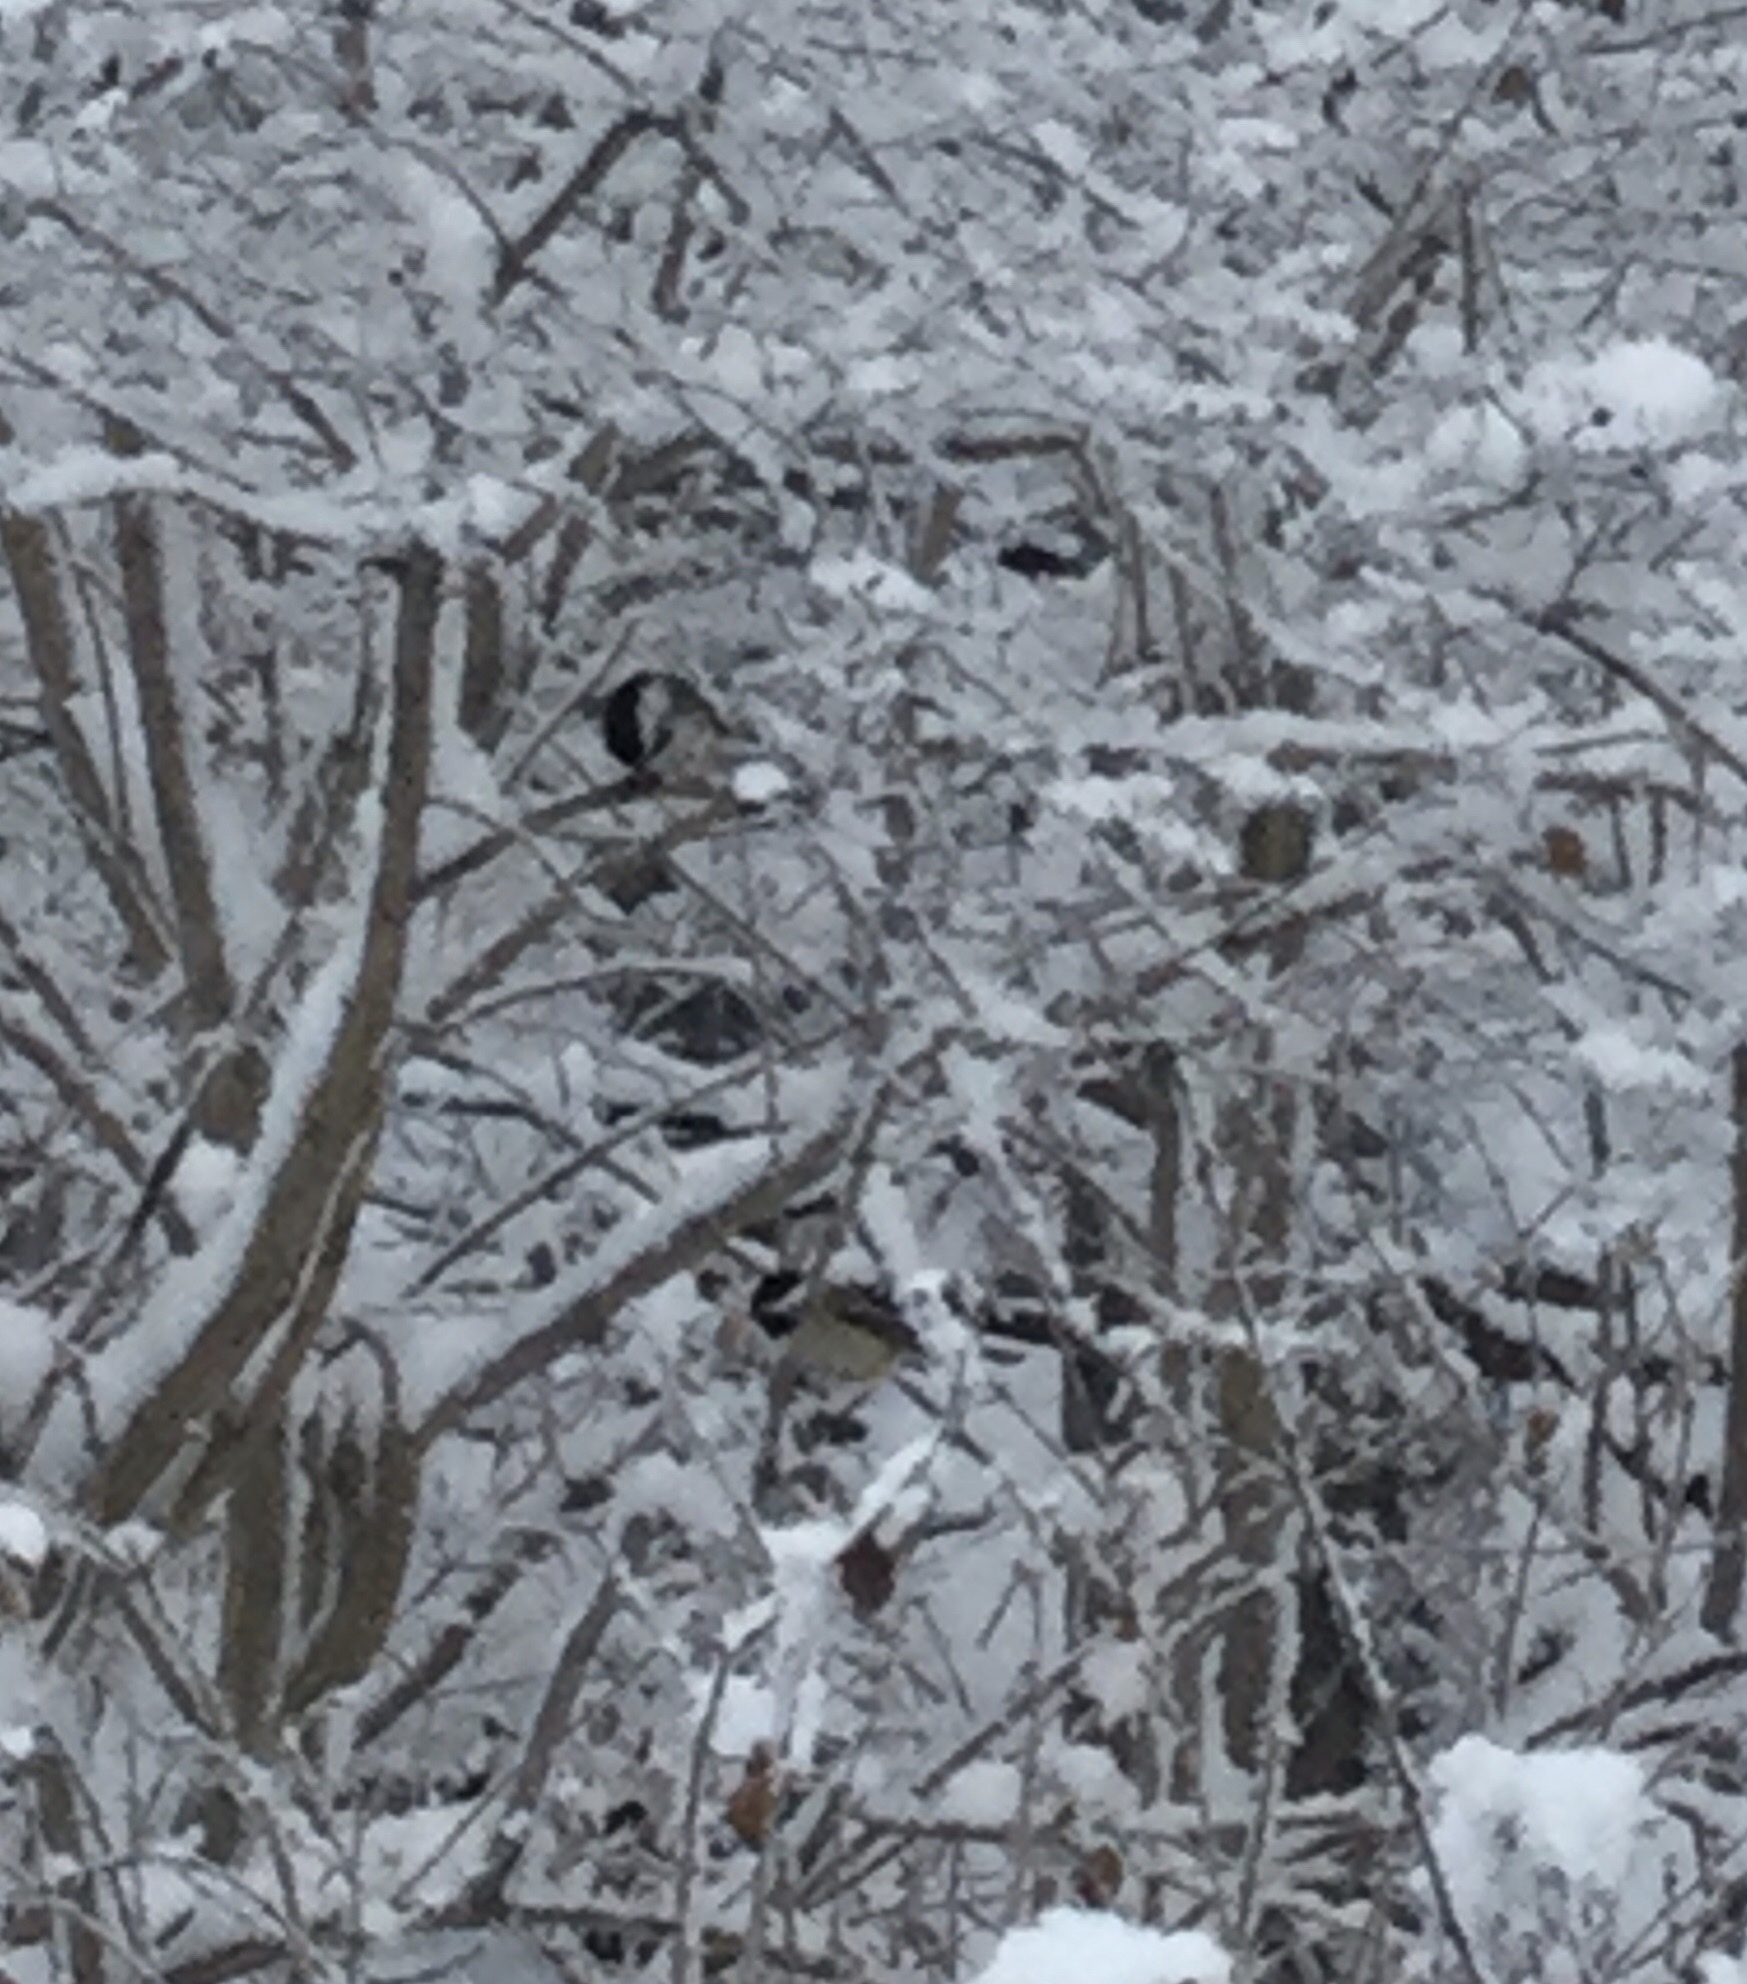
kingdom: Animalia
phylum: Chordata
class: Aves
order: Passeriformes
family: Paridae
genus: Poecile
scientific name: Poecile atricapillus
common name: Black-capped chickadee
